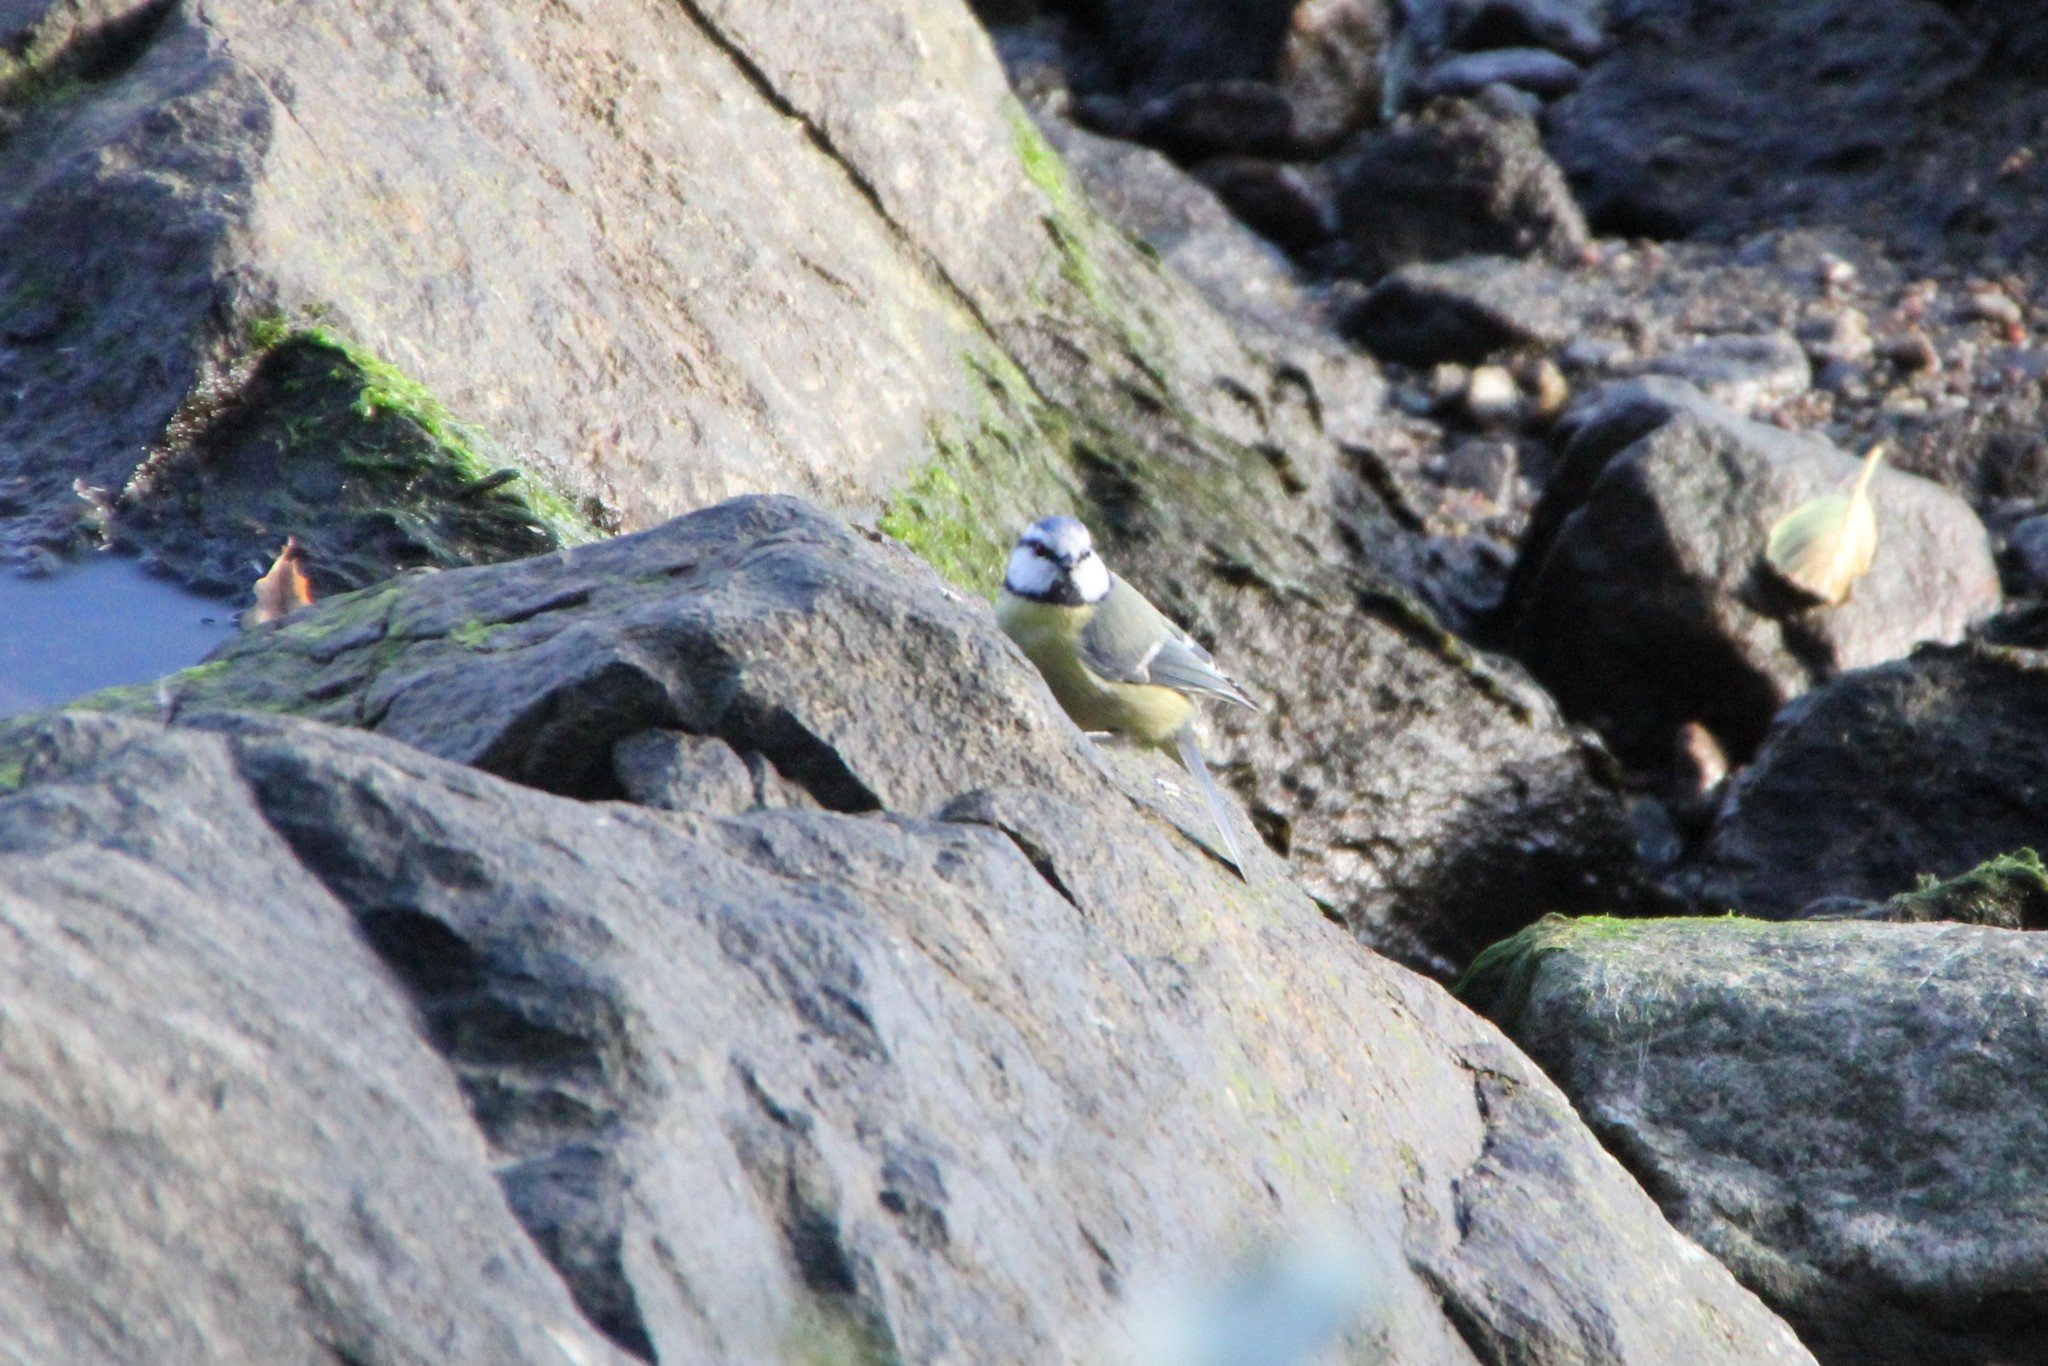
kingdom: Animalia
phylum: Chordata
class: Aves
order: Passeriformes
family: Paridae
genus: Cyanistes
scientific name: Cyanistes caeruleus
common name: Eurasian blue tit
